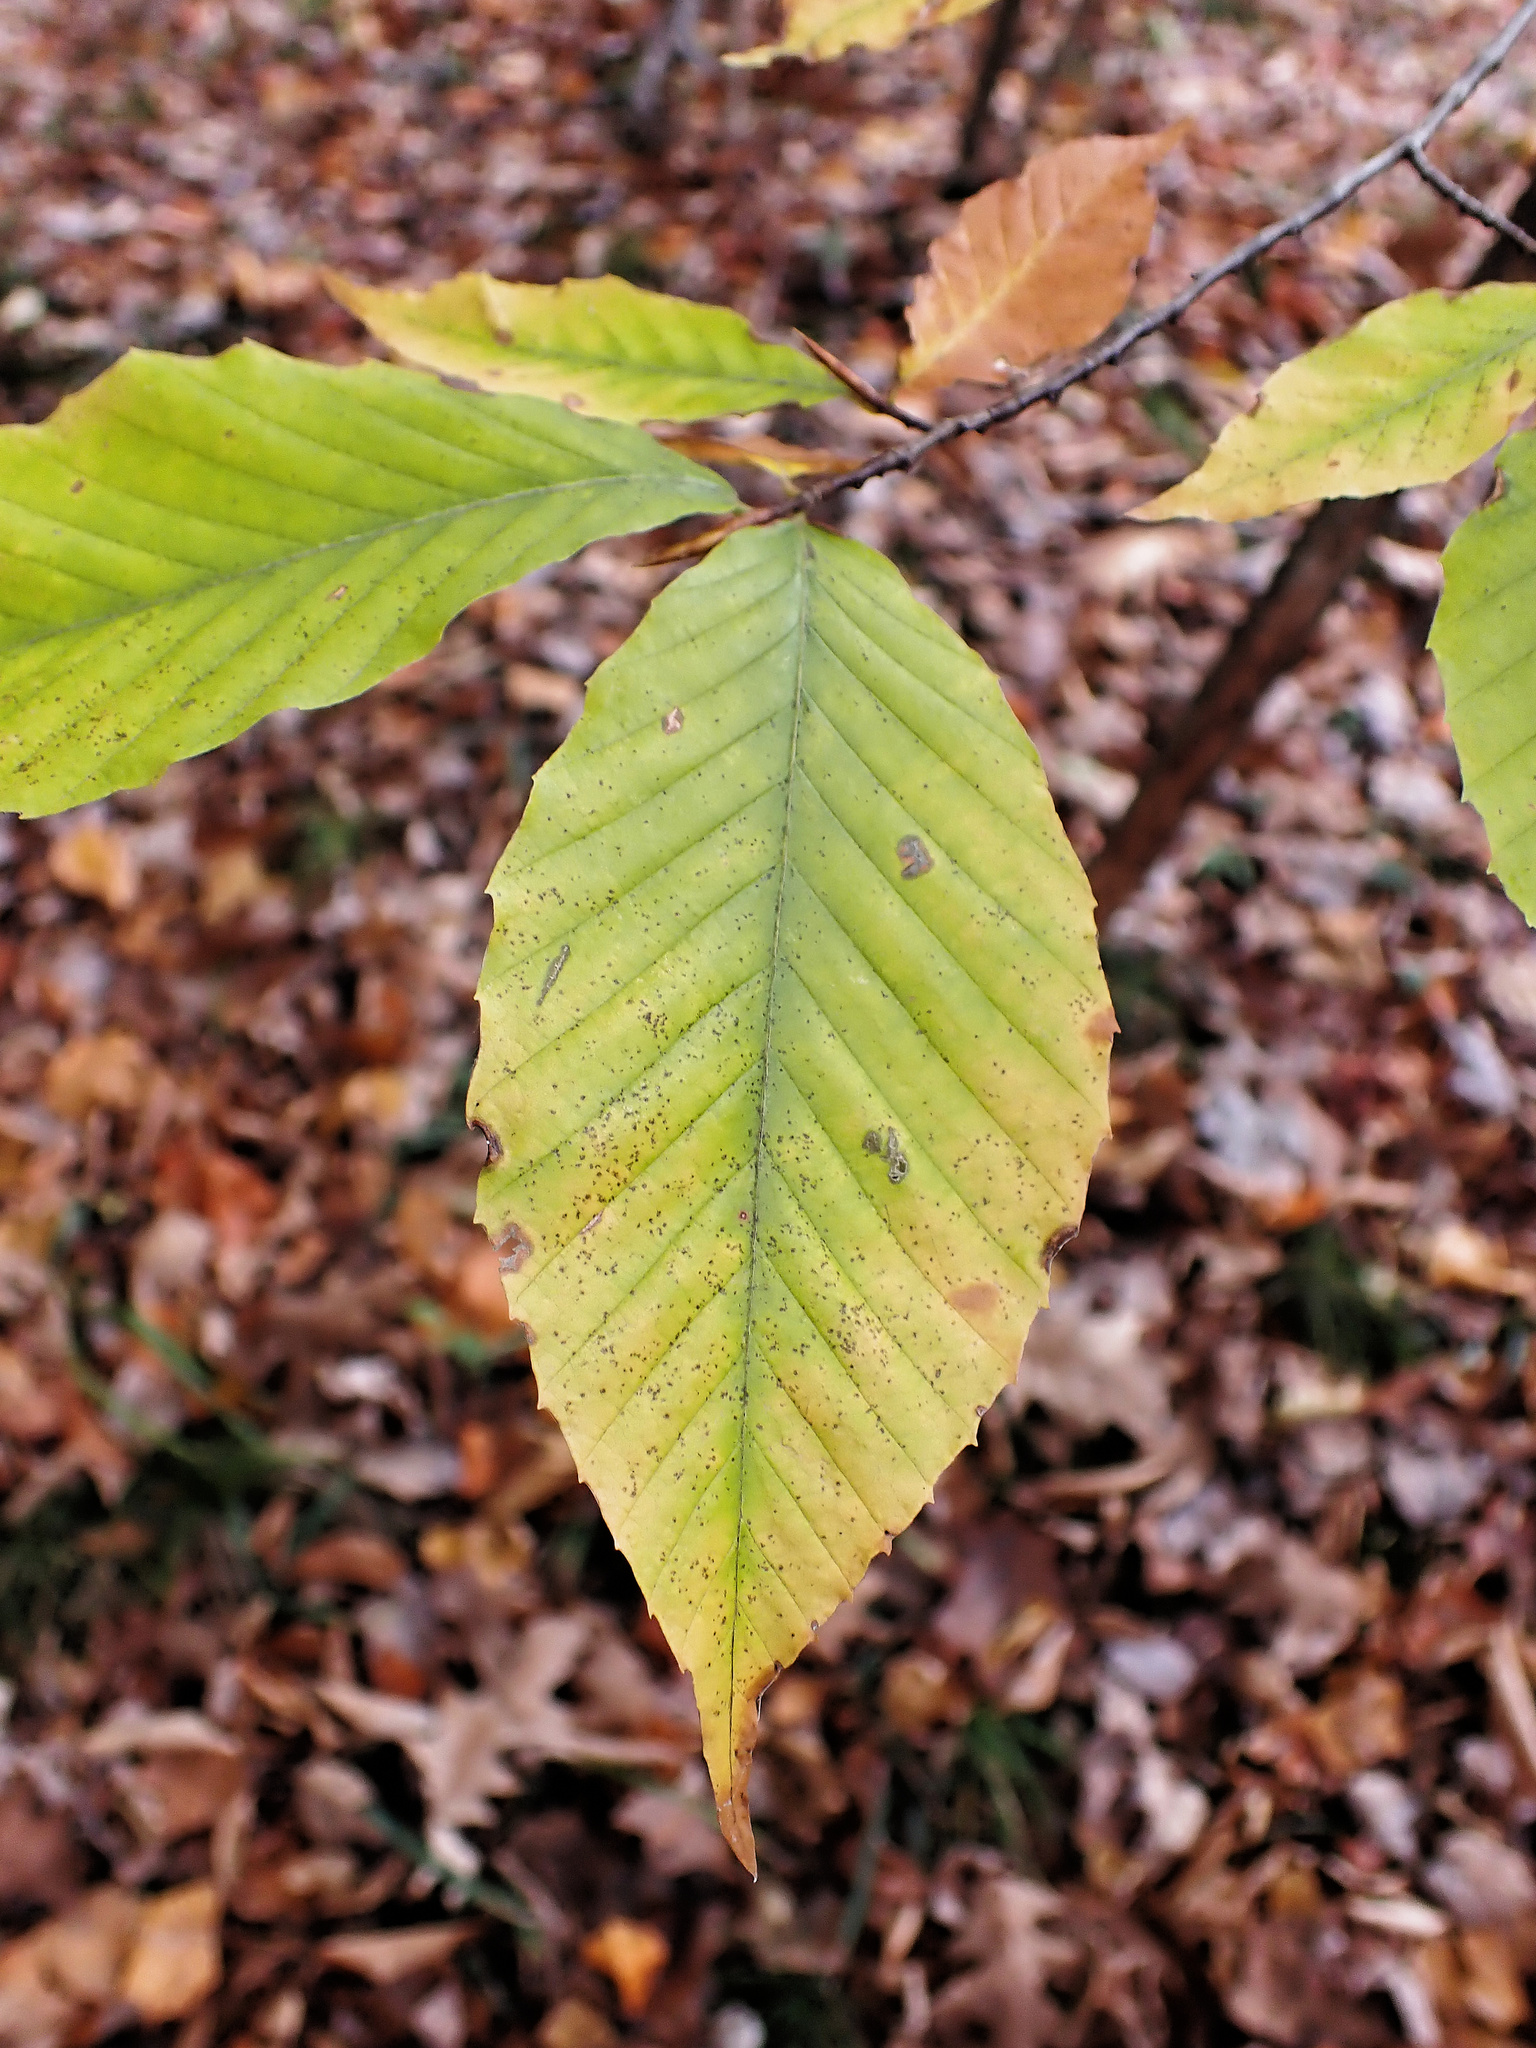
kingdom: Plantae
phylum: Tracheophyta
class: Magnoliopsida
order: Fagales
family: Fagaceae
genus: Fagus
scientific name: Fagus grandifolia
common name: American beech
